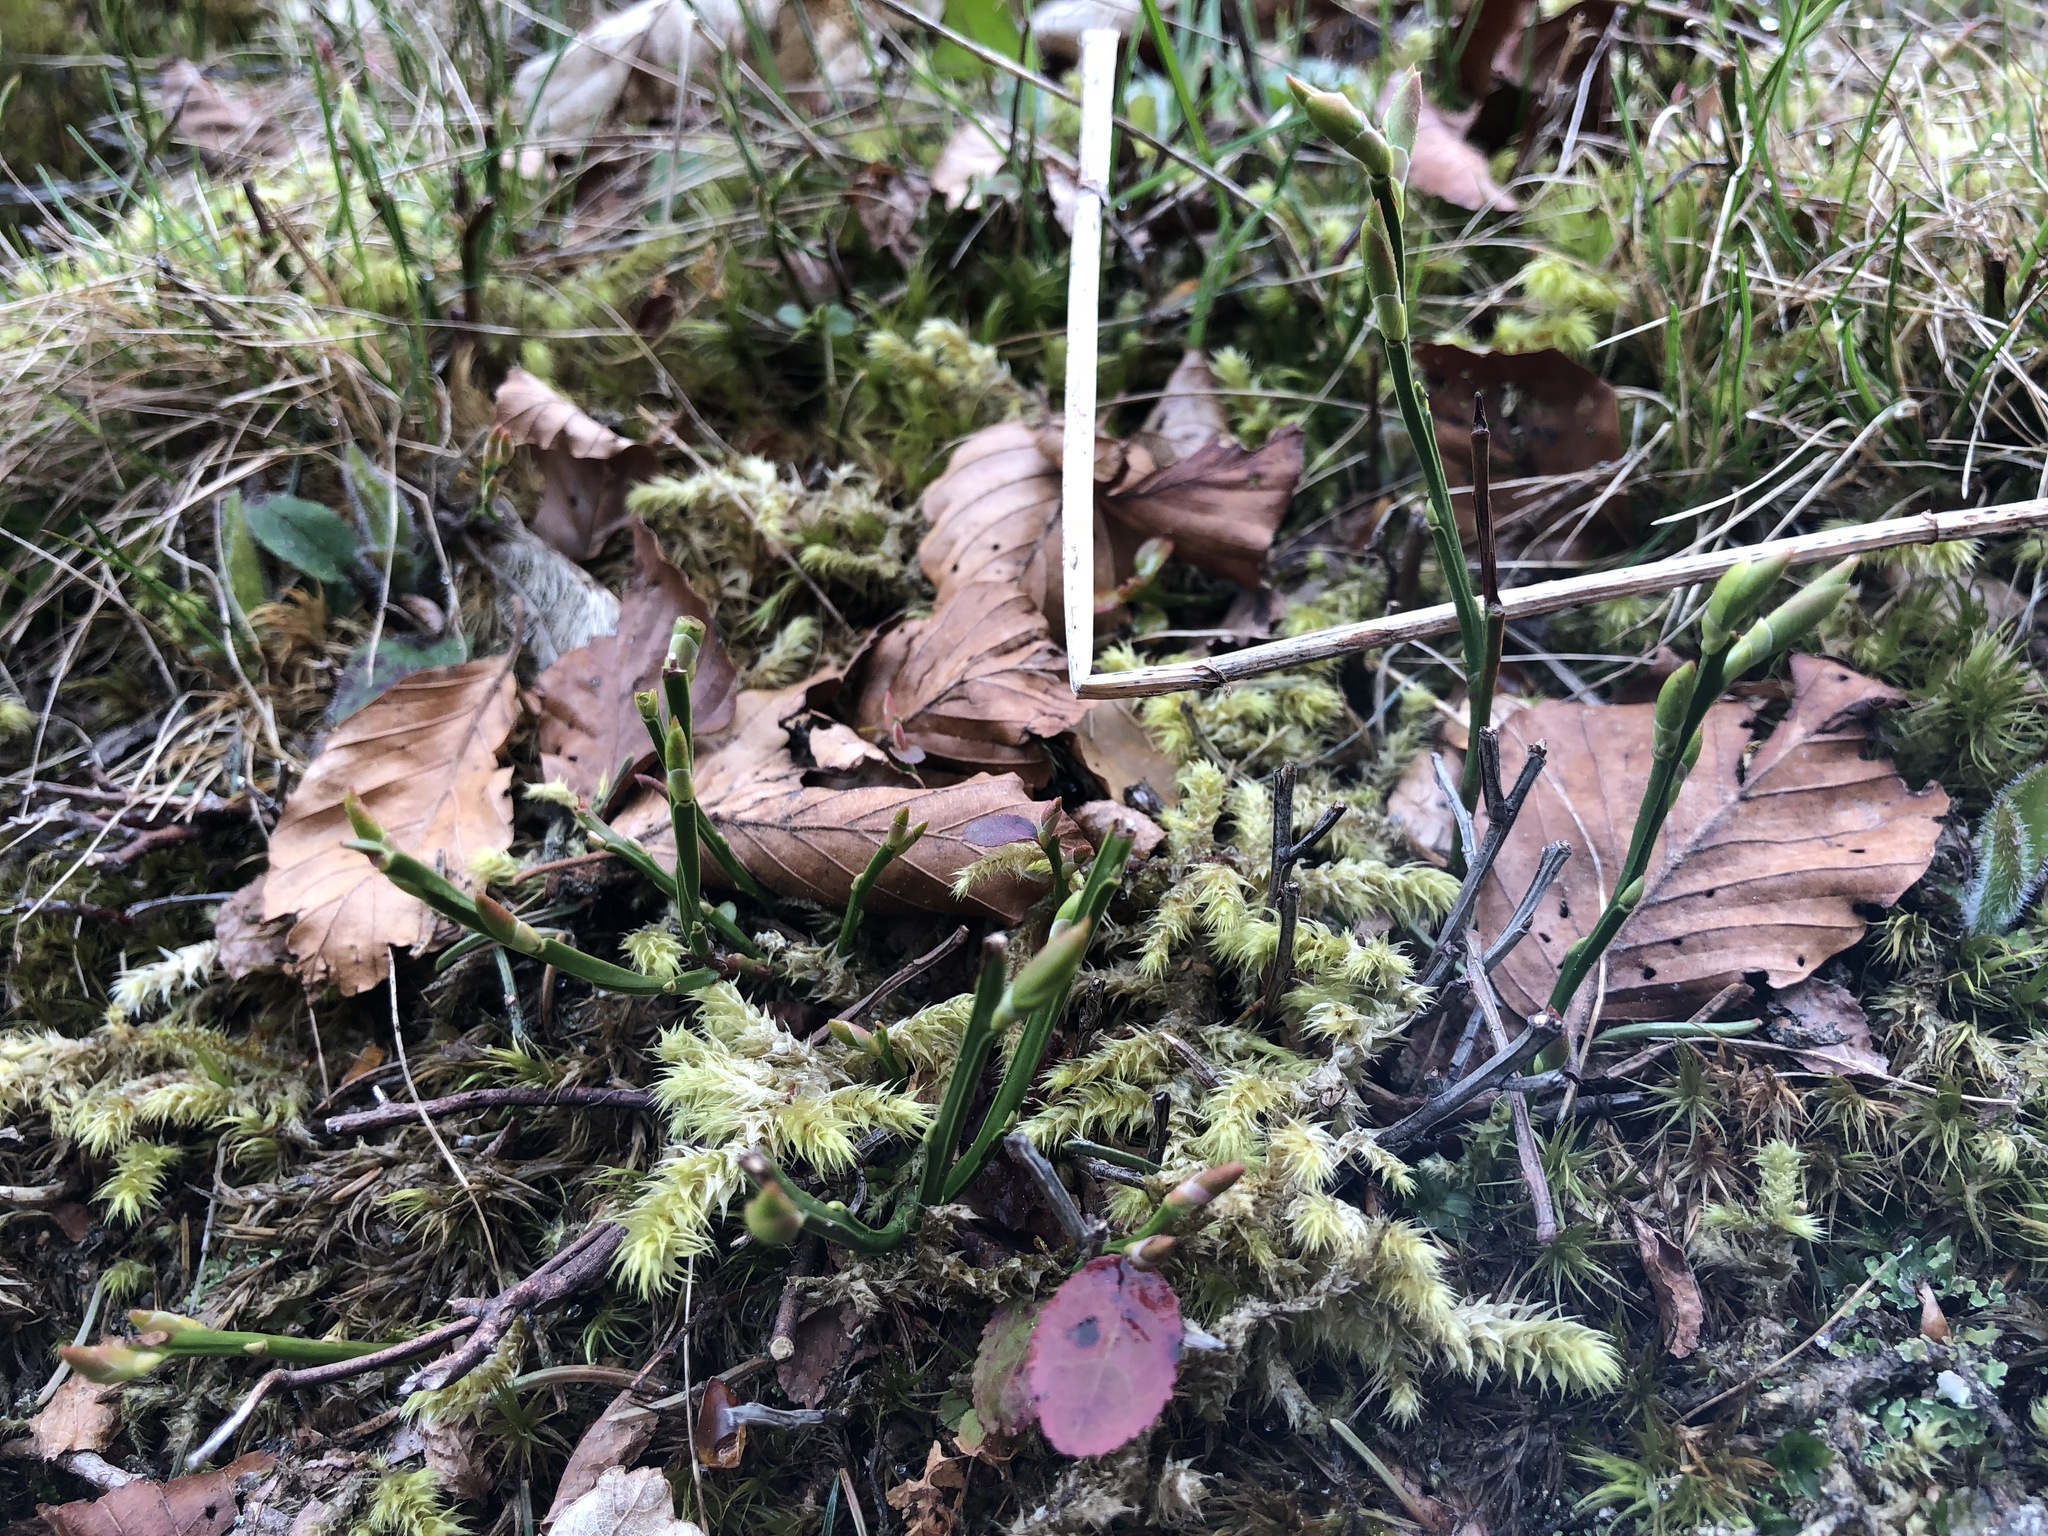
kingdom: Plantae
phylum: Tracheophyta
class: Magnoliopsida
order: Ericales
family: Ericaceae
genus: Vaccinium
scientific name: Vaccinium myrtillus
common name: Bilberry
